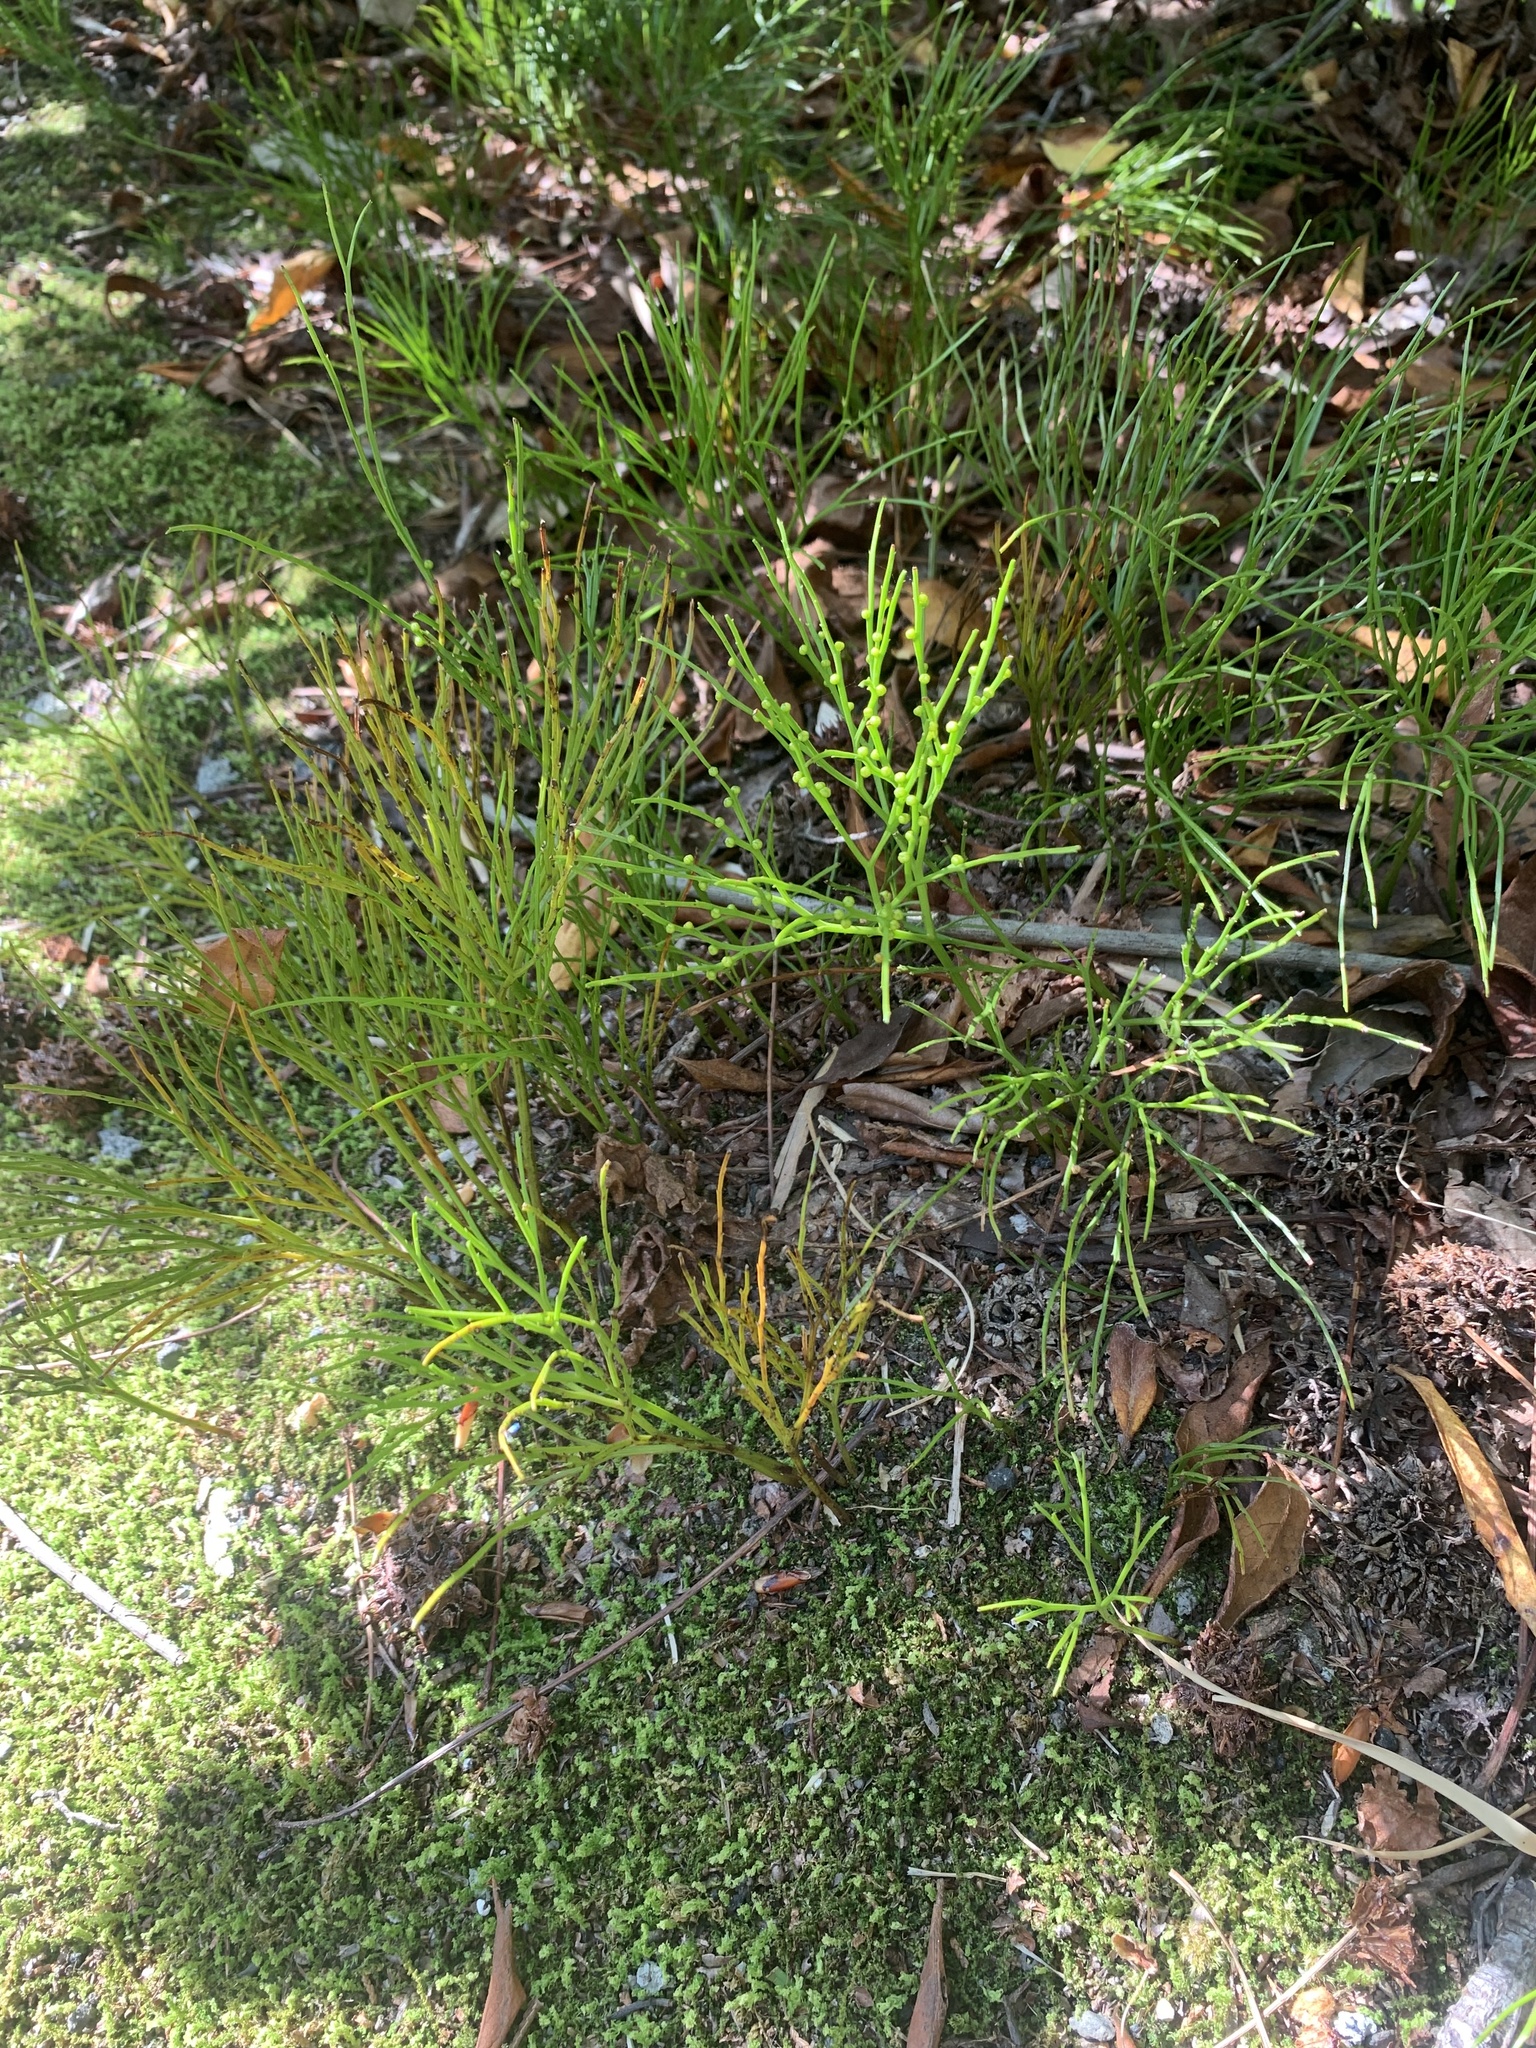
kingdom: Plantae
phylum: Tracheophyta
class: Polypodiopsida
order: Psilotales
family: Psilotaceae
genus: Psilotum
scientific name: Psilotum nudum
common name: Skeleton fork fern
